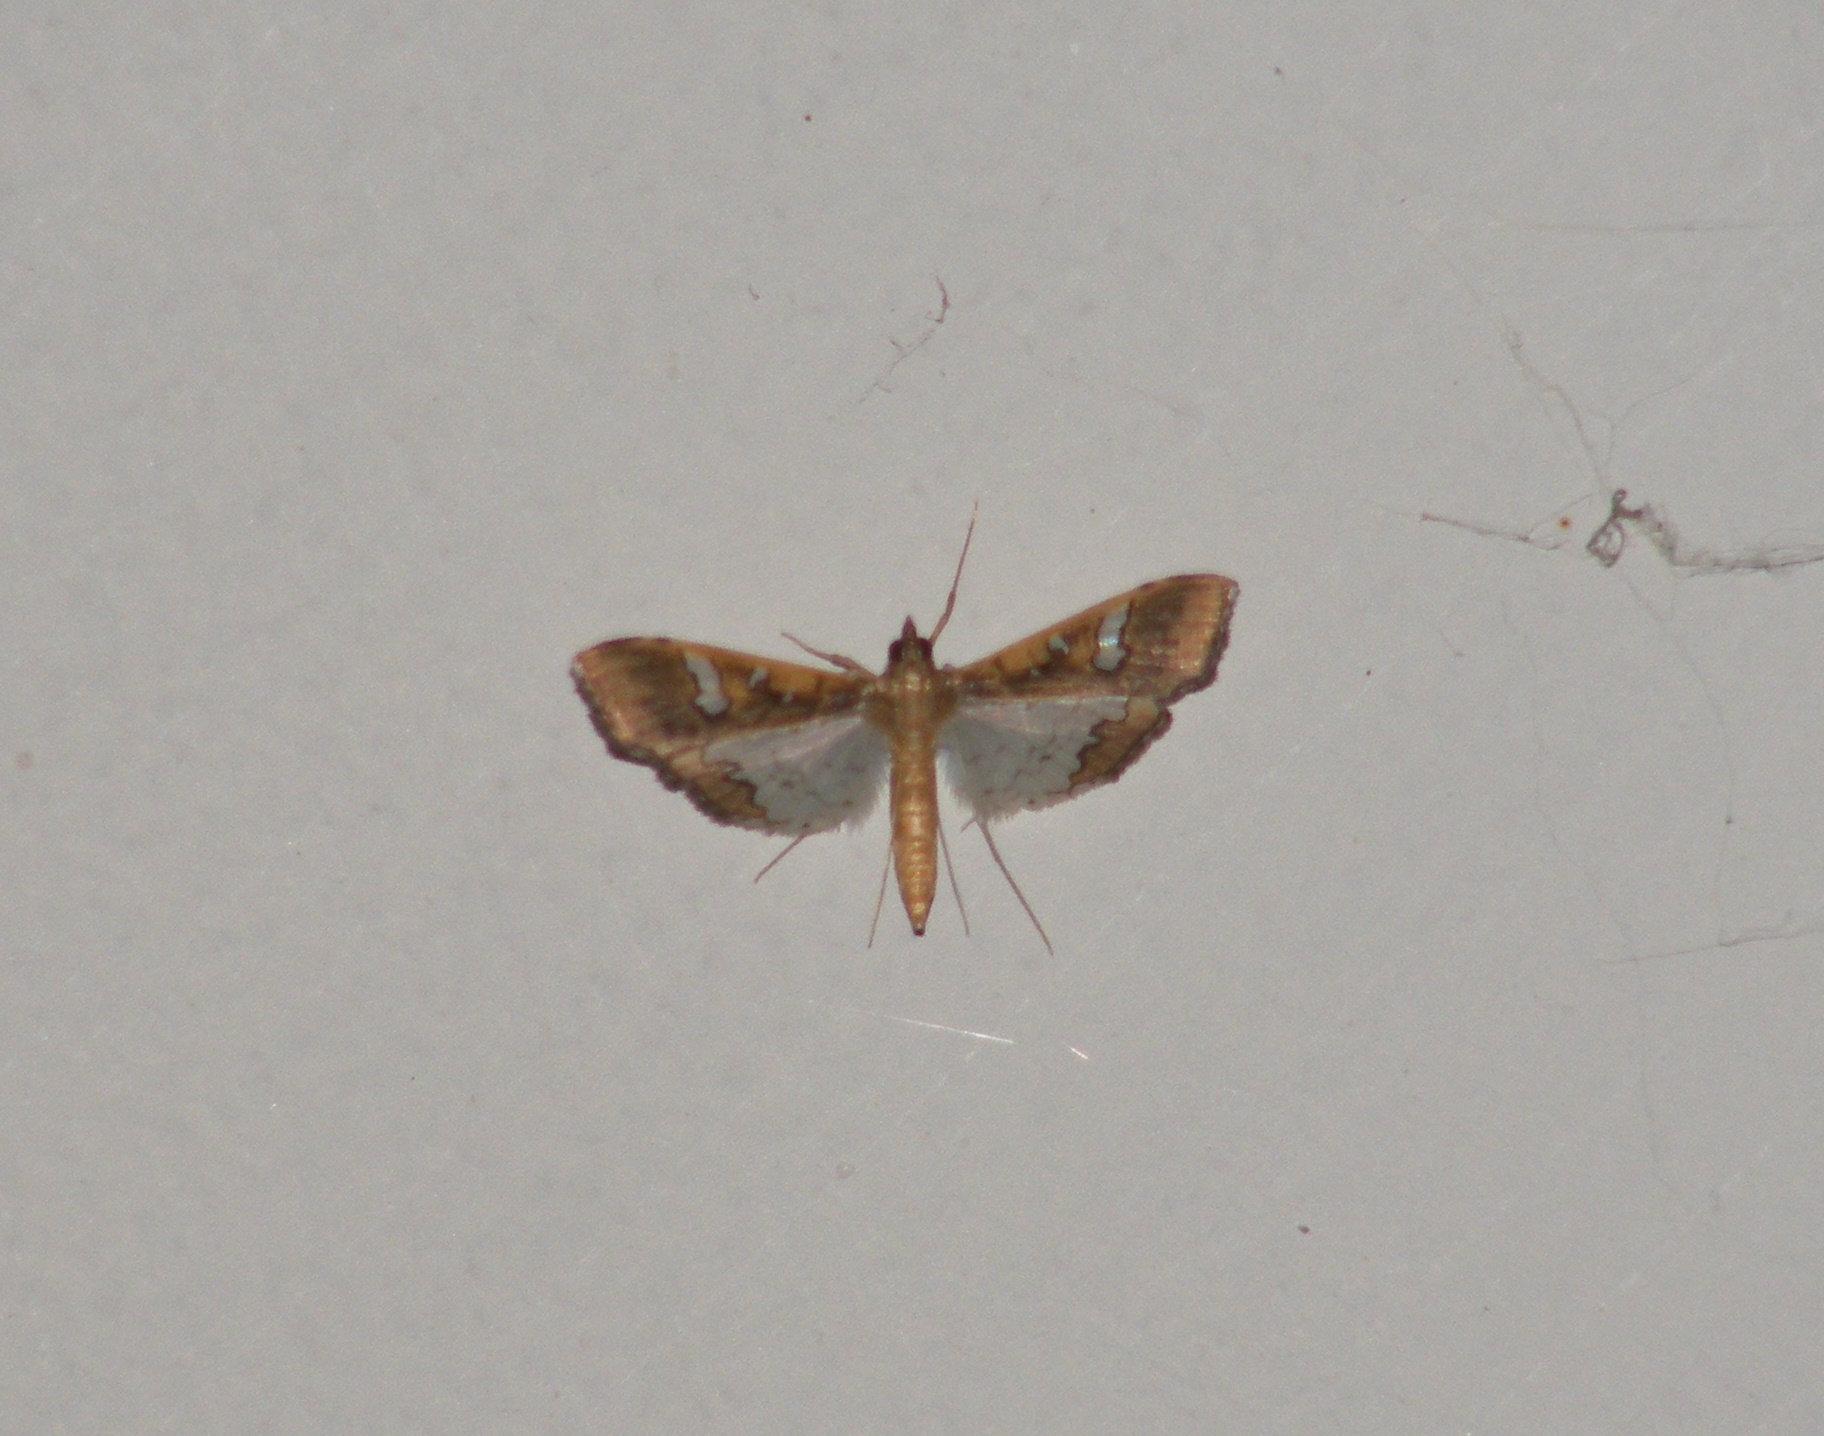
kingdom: Animalia
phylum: Arthropoda
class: Insecta
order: Lepidoptera
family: Crambidae
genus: Maruca
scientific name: Maruca vitrata
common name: Maruca pod borer
